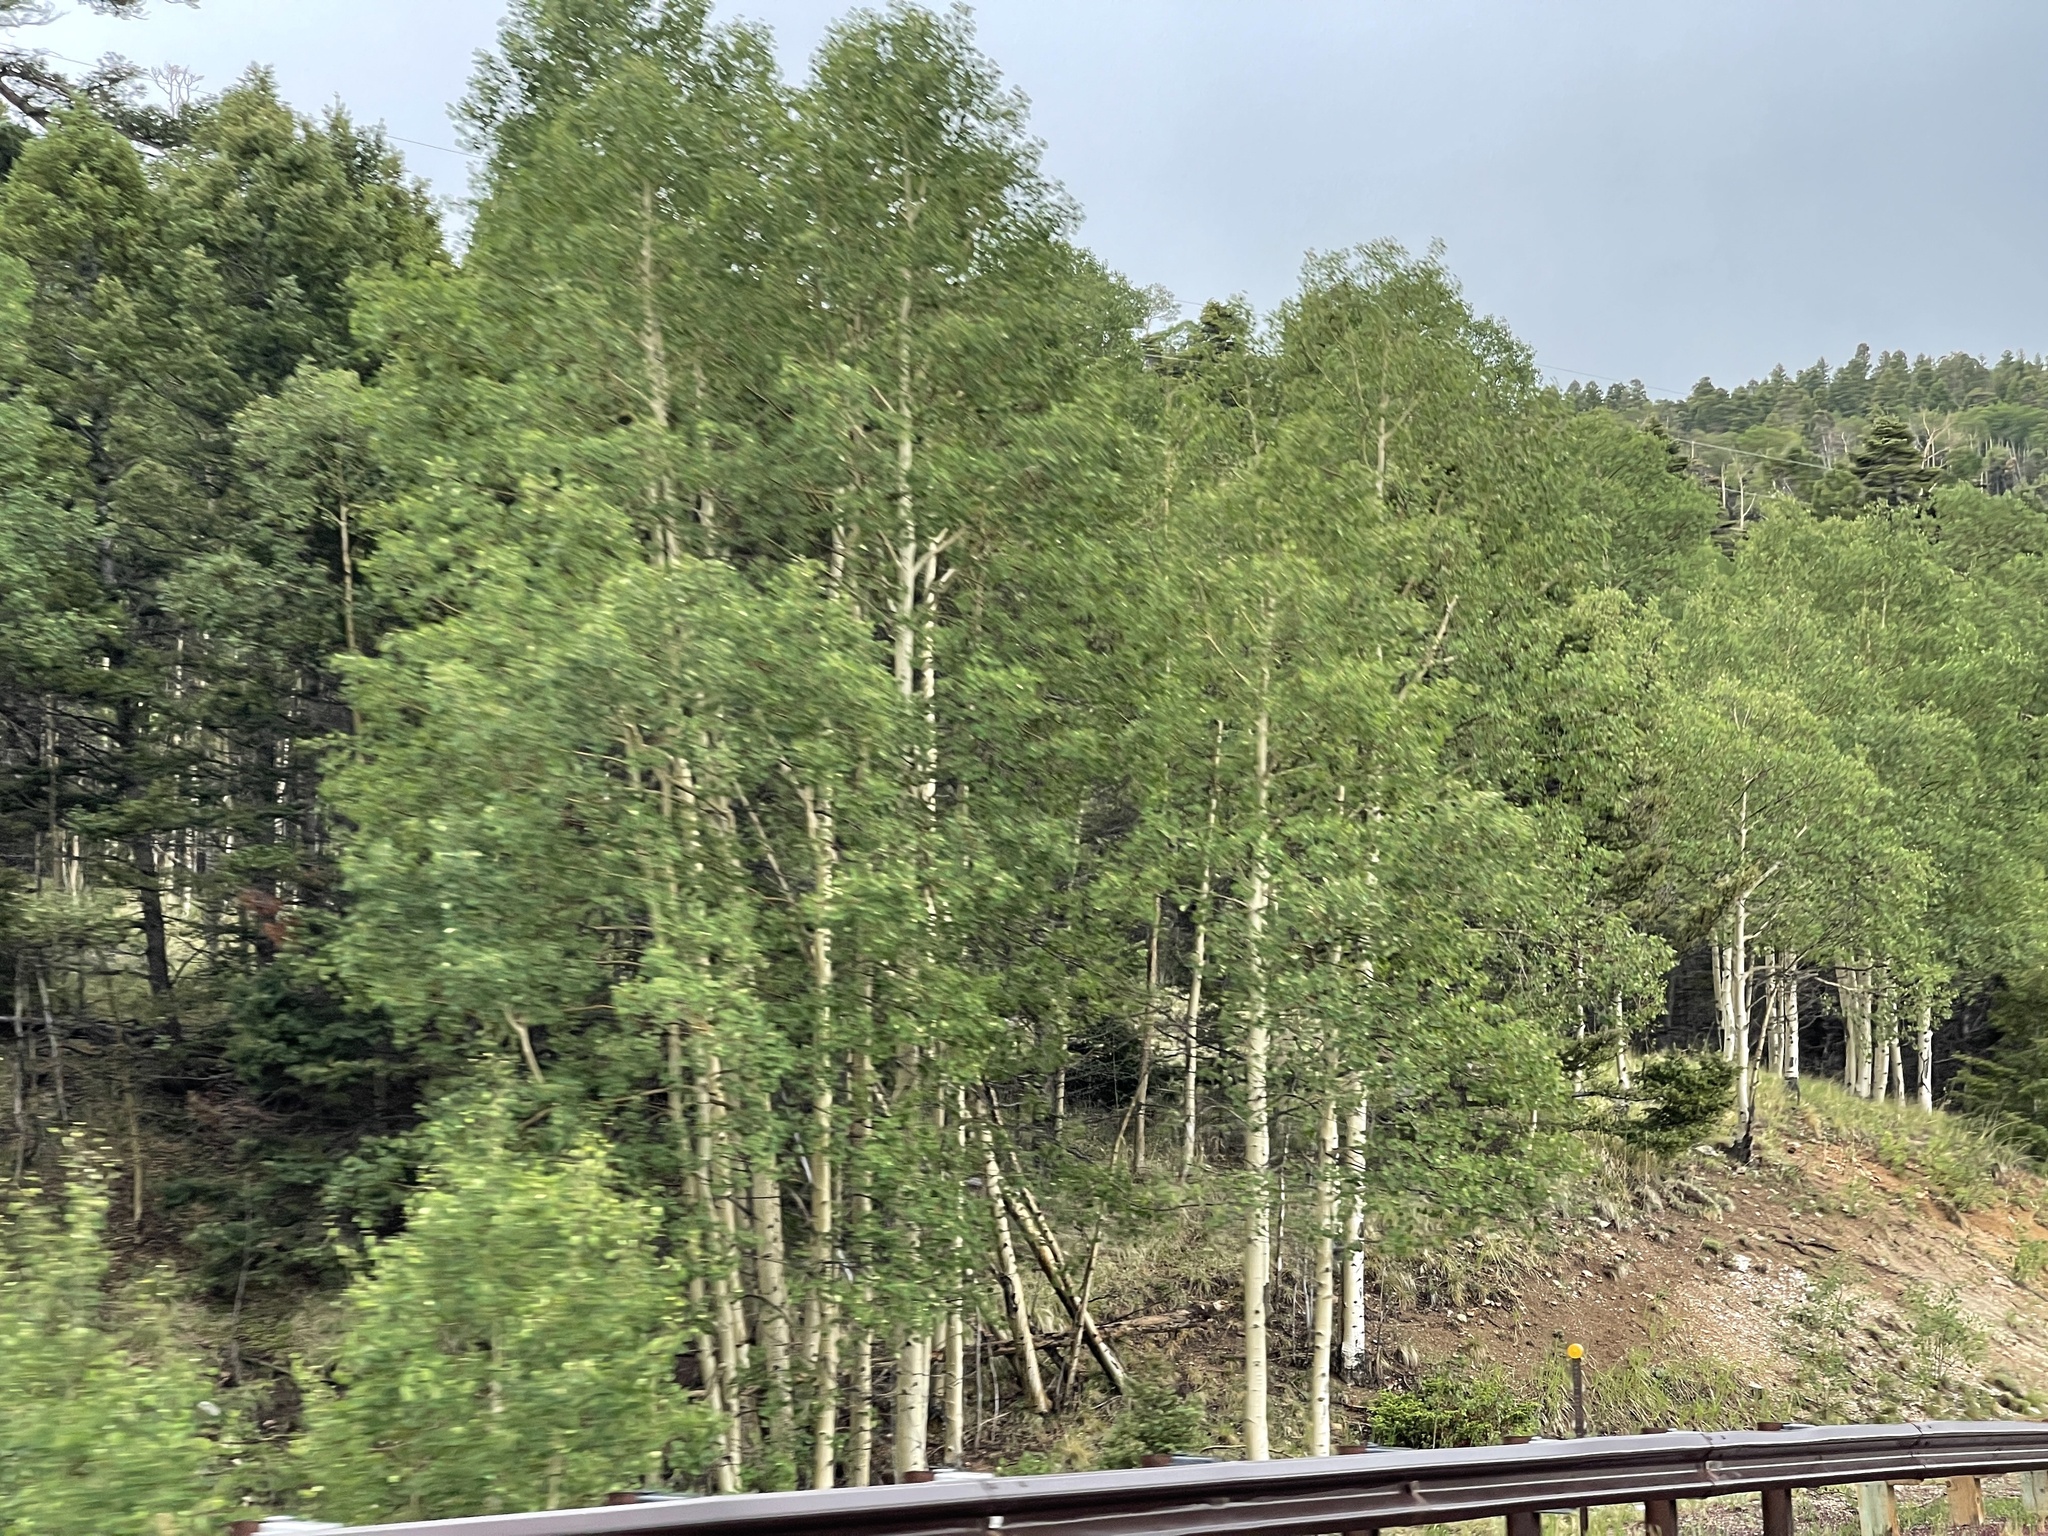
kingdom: Plantae
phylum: Tracheophyta
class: Magnoliopsida
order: Malpighiales
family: Salicaceae
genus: Populus
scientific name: Populus tremuloides
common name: Quaking aspen
